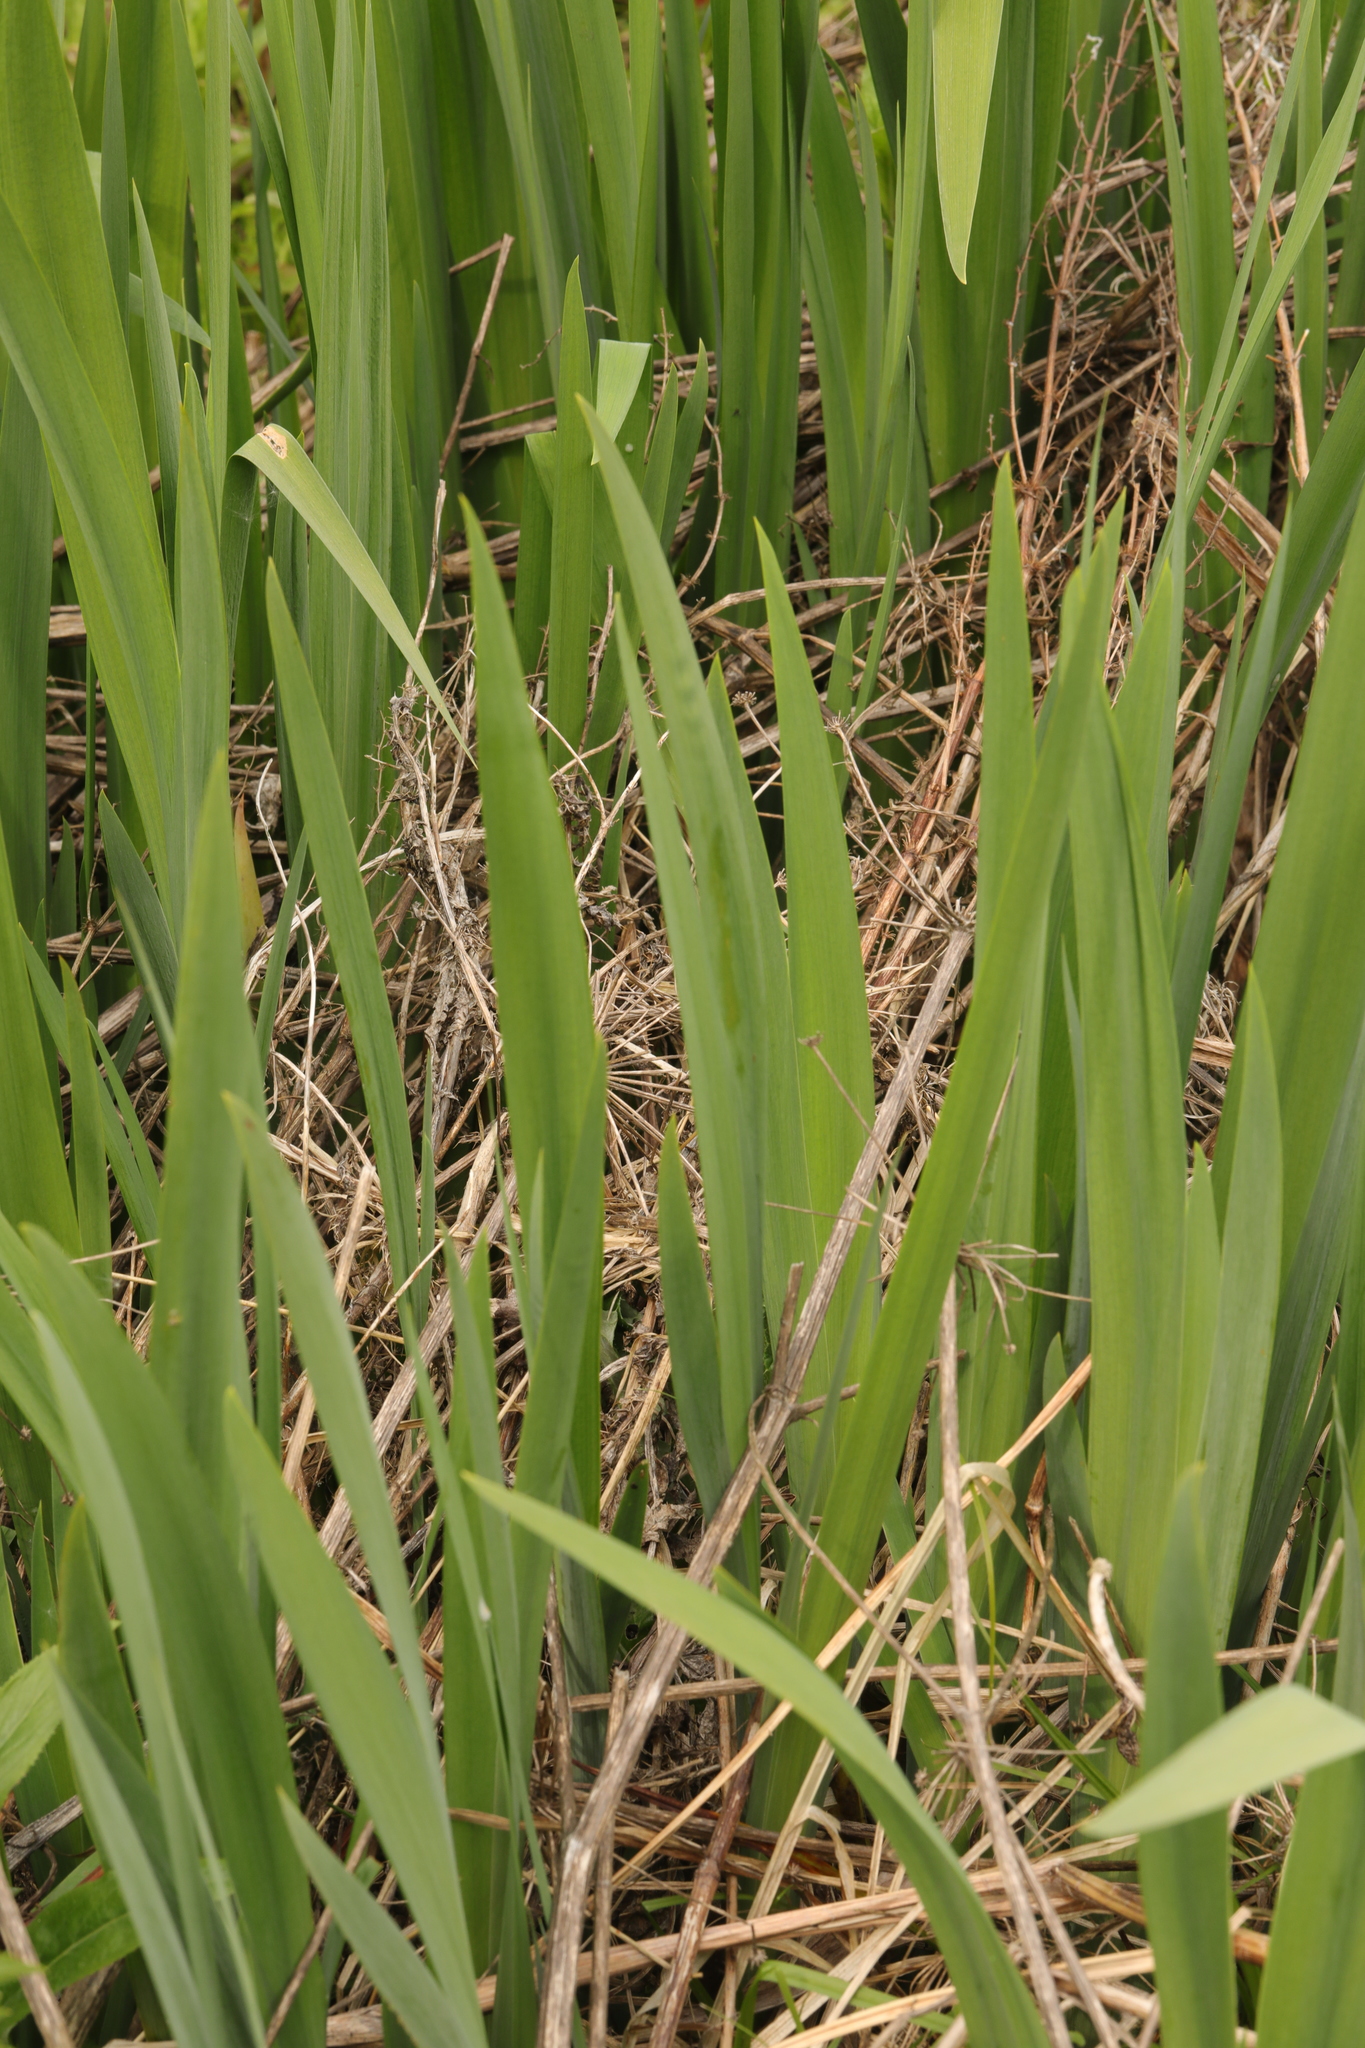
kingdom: Plantae
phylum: Tracheophyta
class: Liliopsida
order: Asparagales
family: Iridaceae
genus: Iris
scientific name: Iris pseudacorus
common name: Yellow flag
